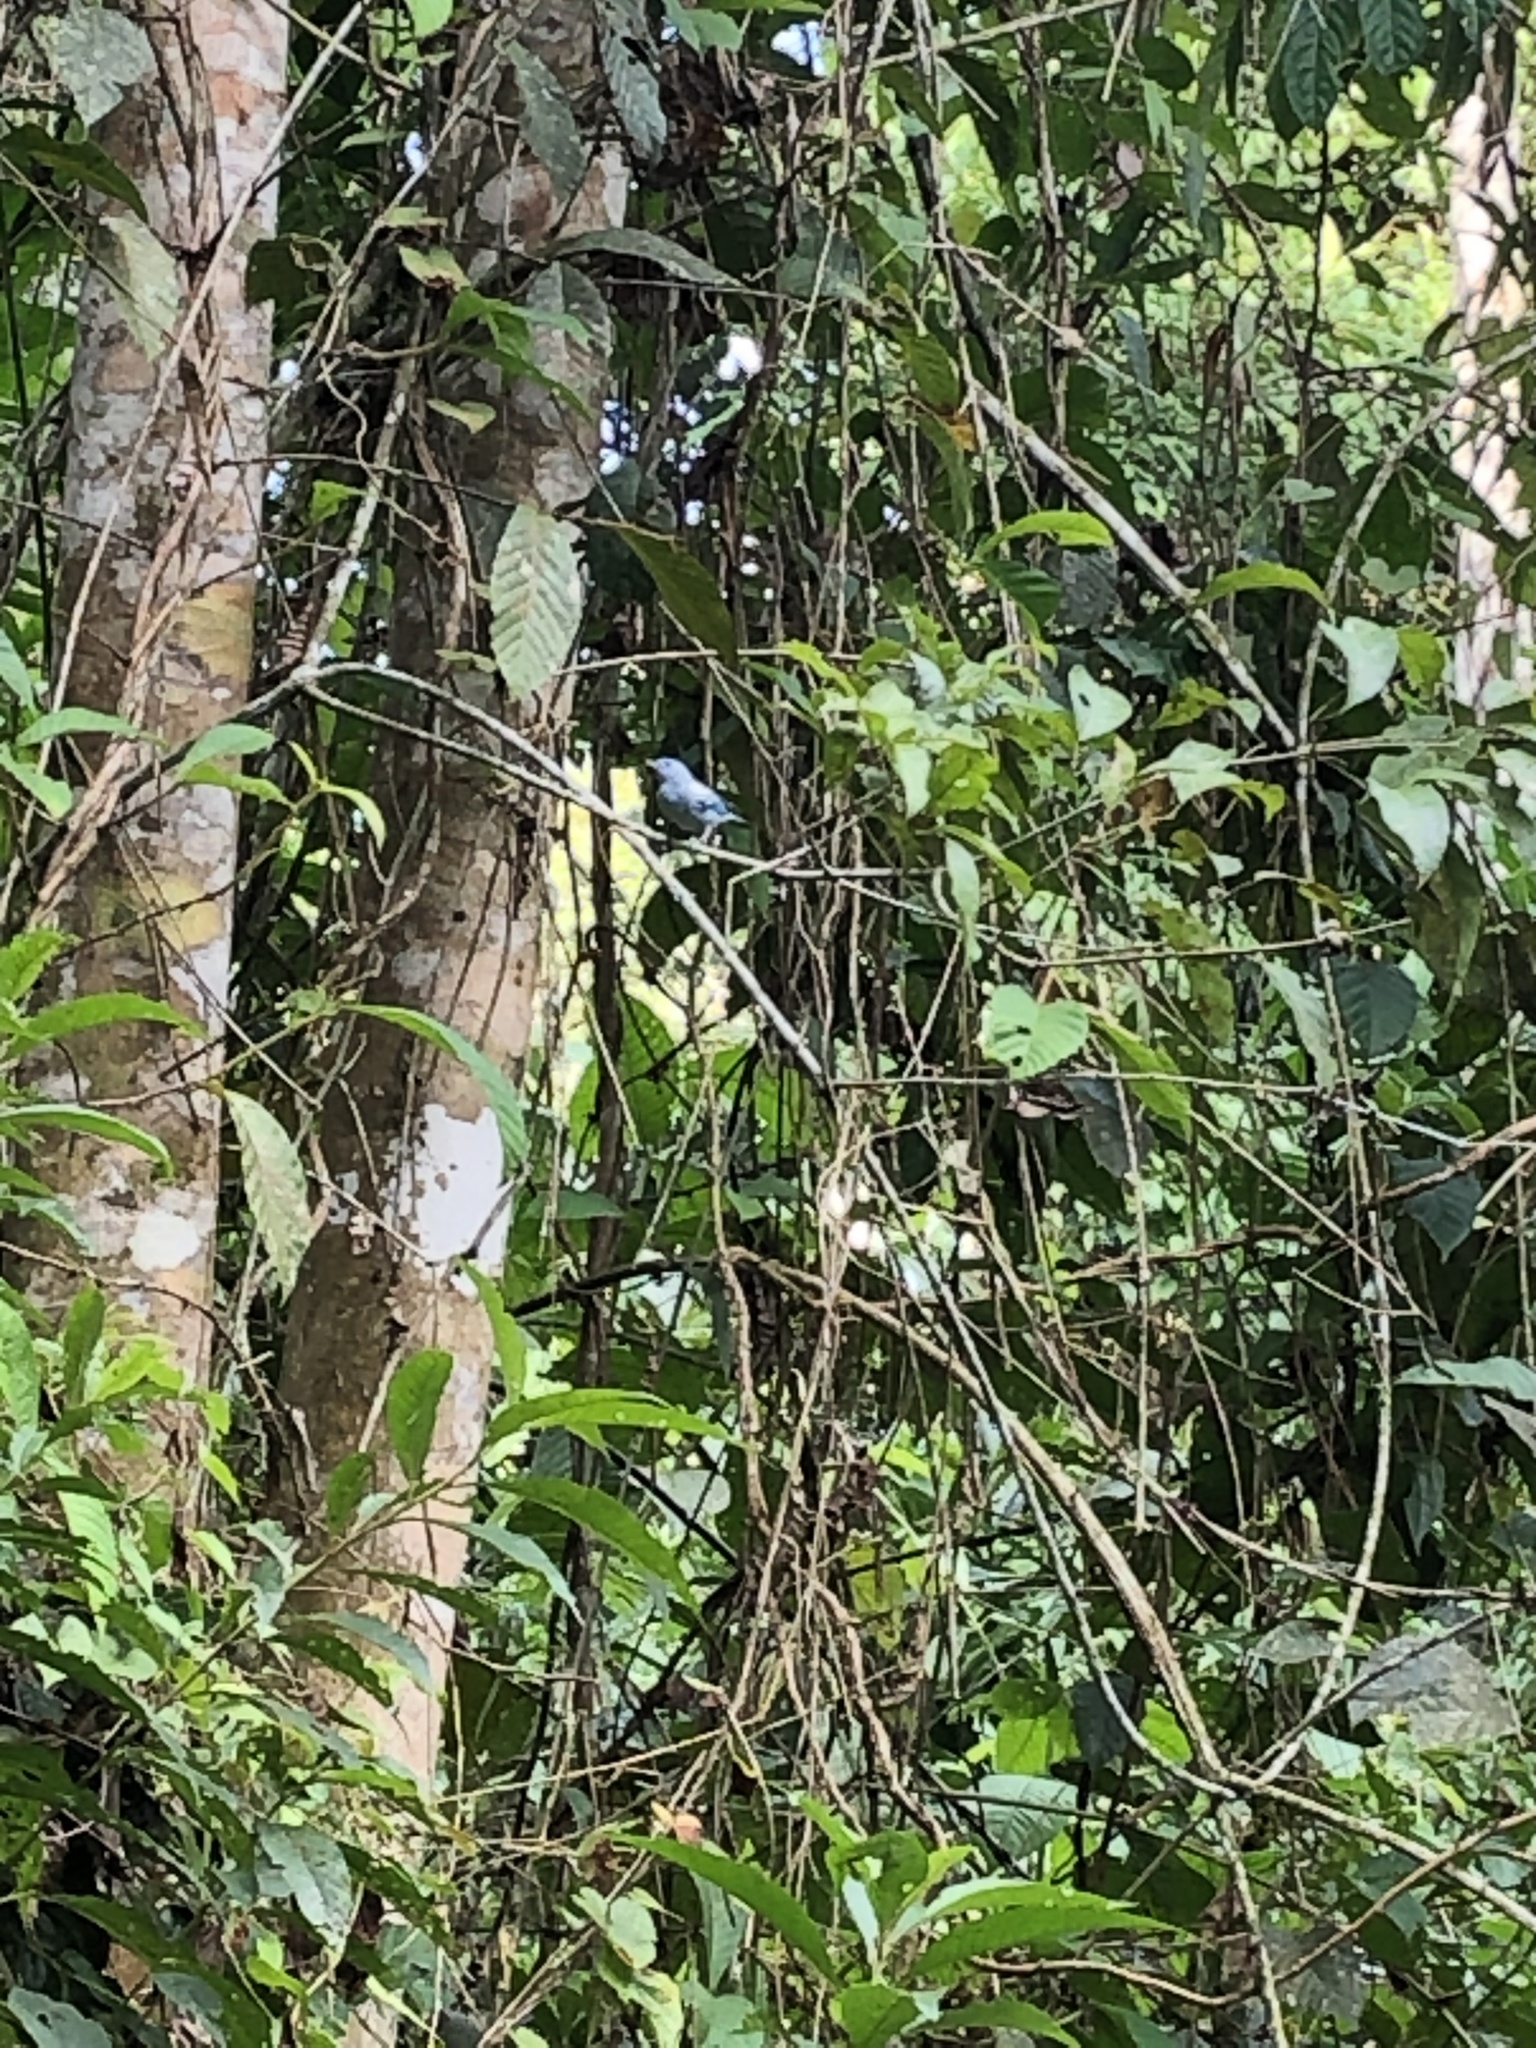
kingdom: Animalia
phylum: Chordata
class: Aves
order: Passeriformes
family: Thraupidae
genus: Thraupis
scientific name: Thraupis episcopus
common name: Blue-grey tanager
